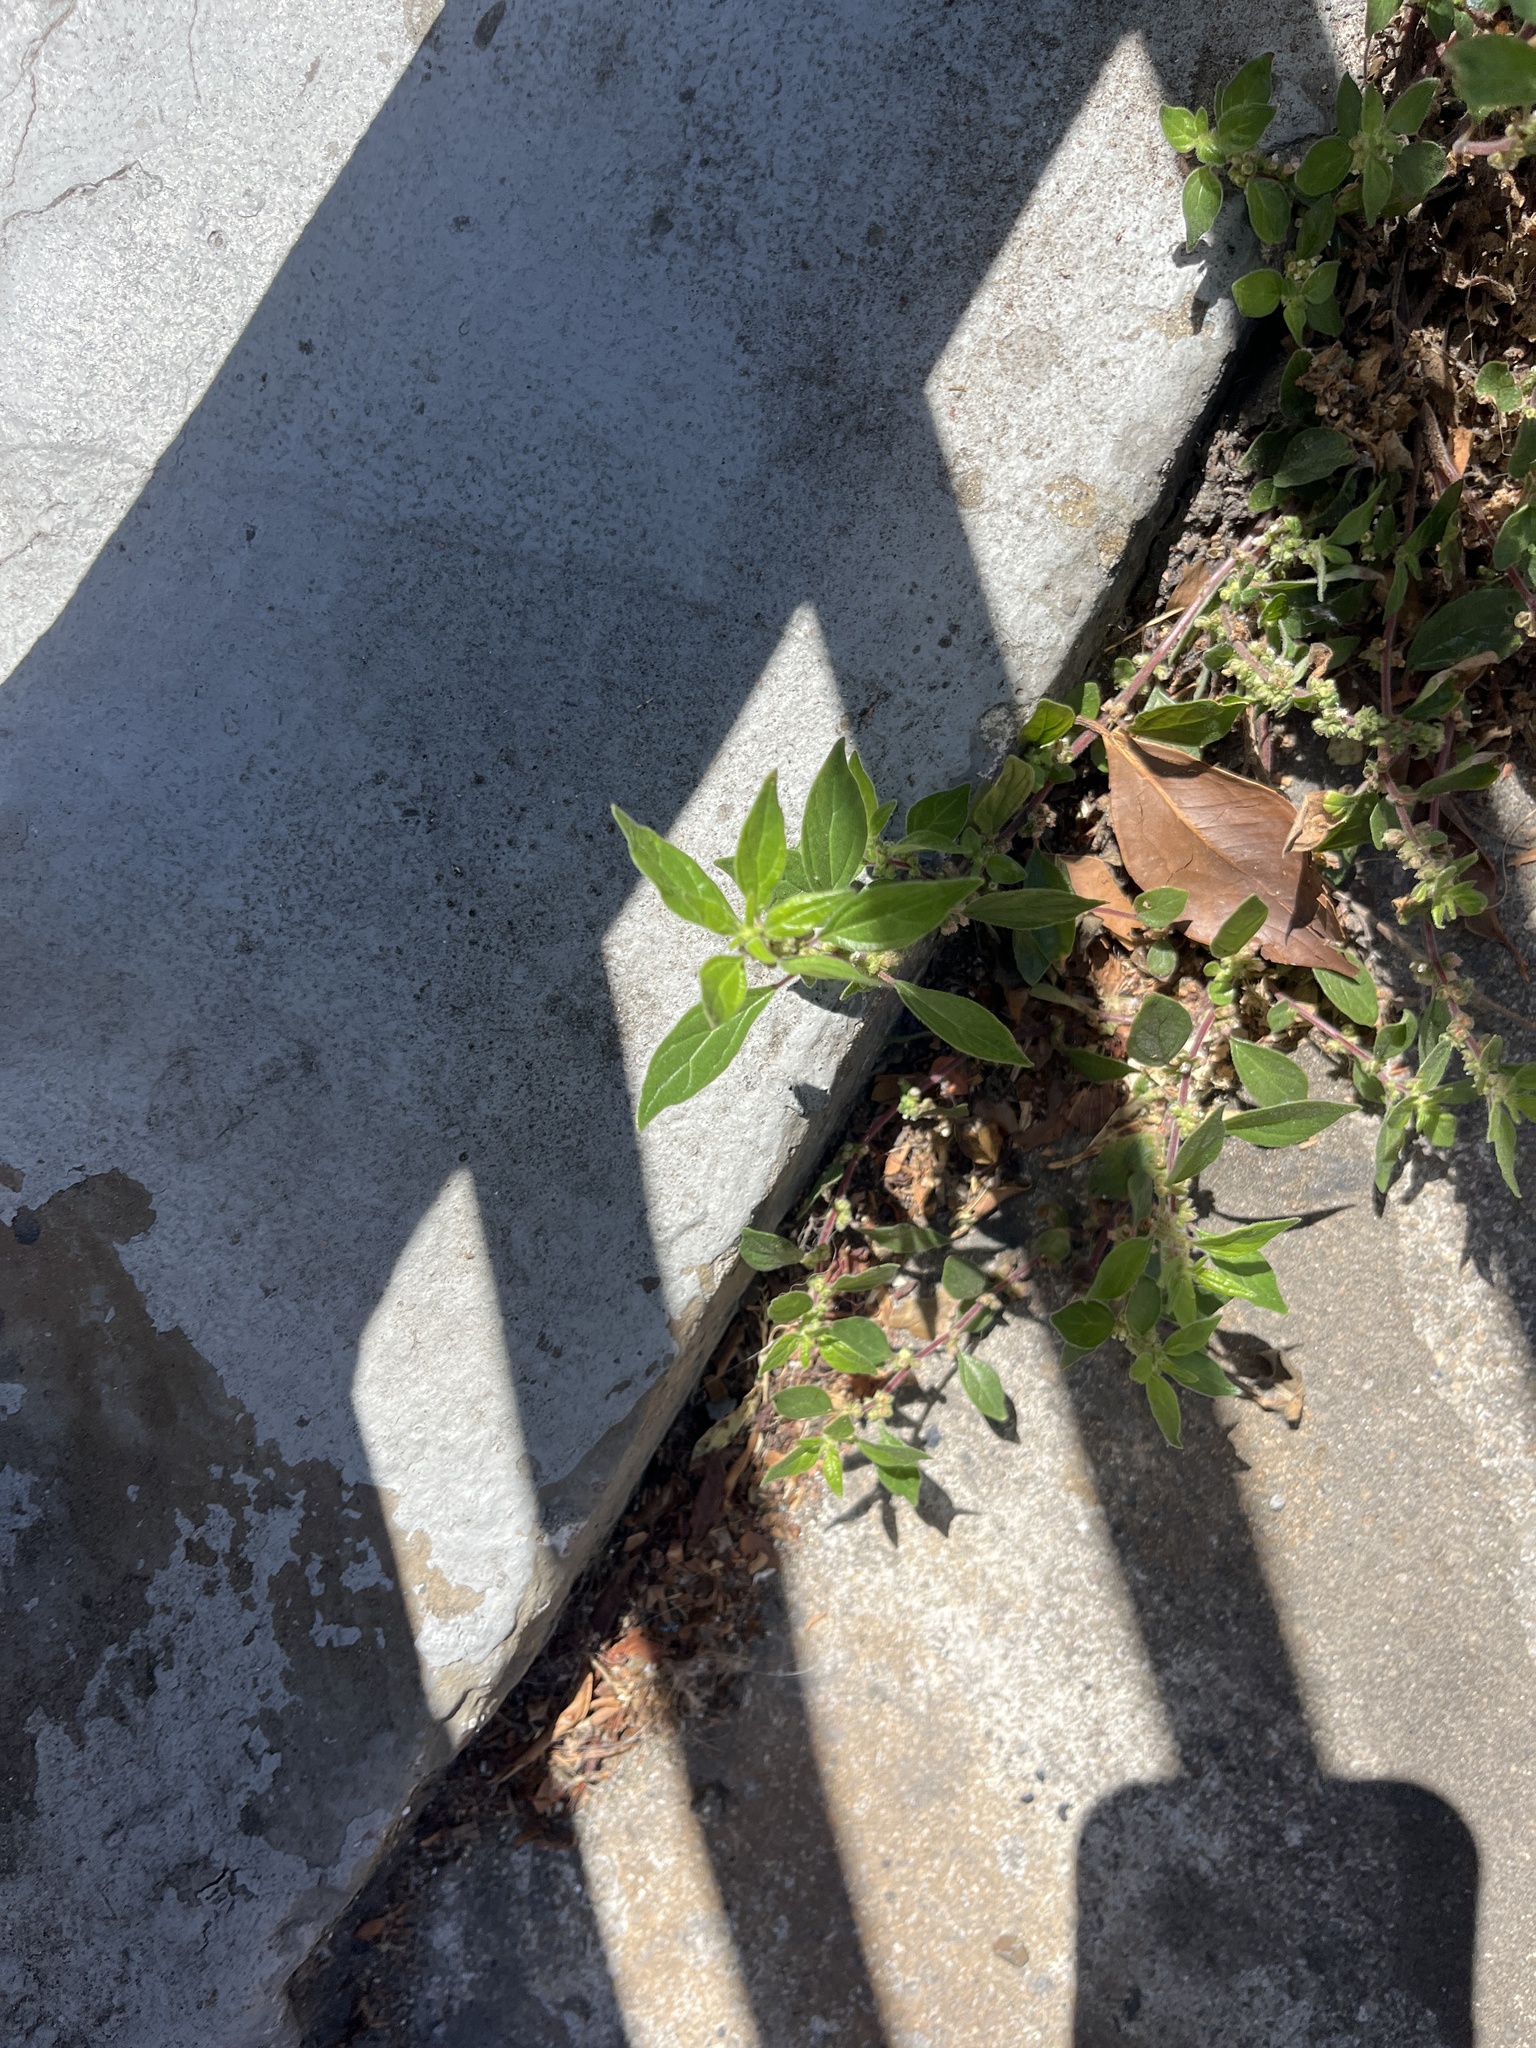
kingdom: Plantae
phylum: Tracheophyta
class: Magnoliopsida
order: Rosales
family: Urticaceae
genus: Parietaria
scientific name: Parietaria judaica
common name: Pellitory-of-the-wall
